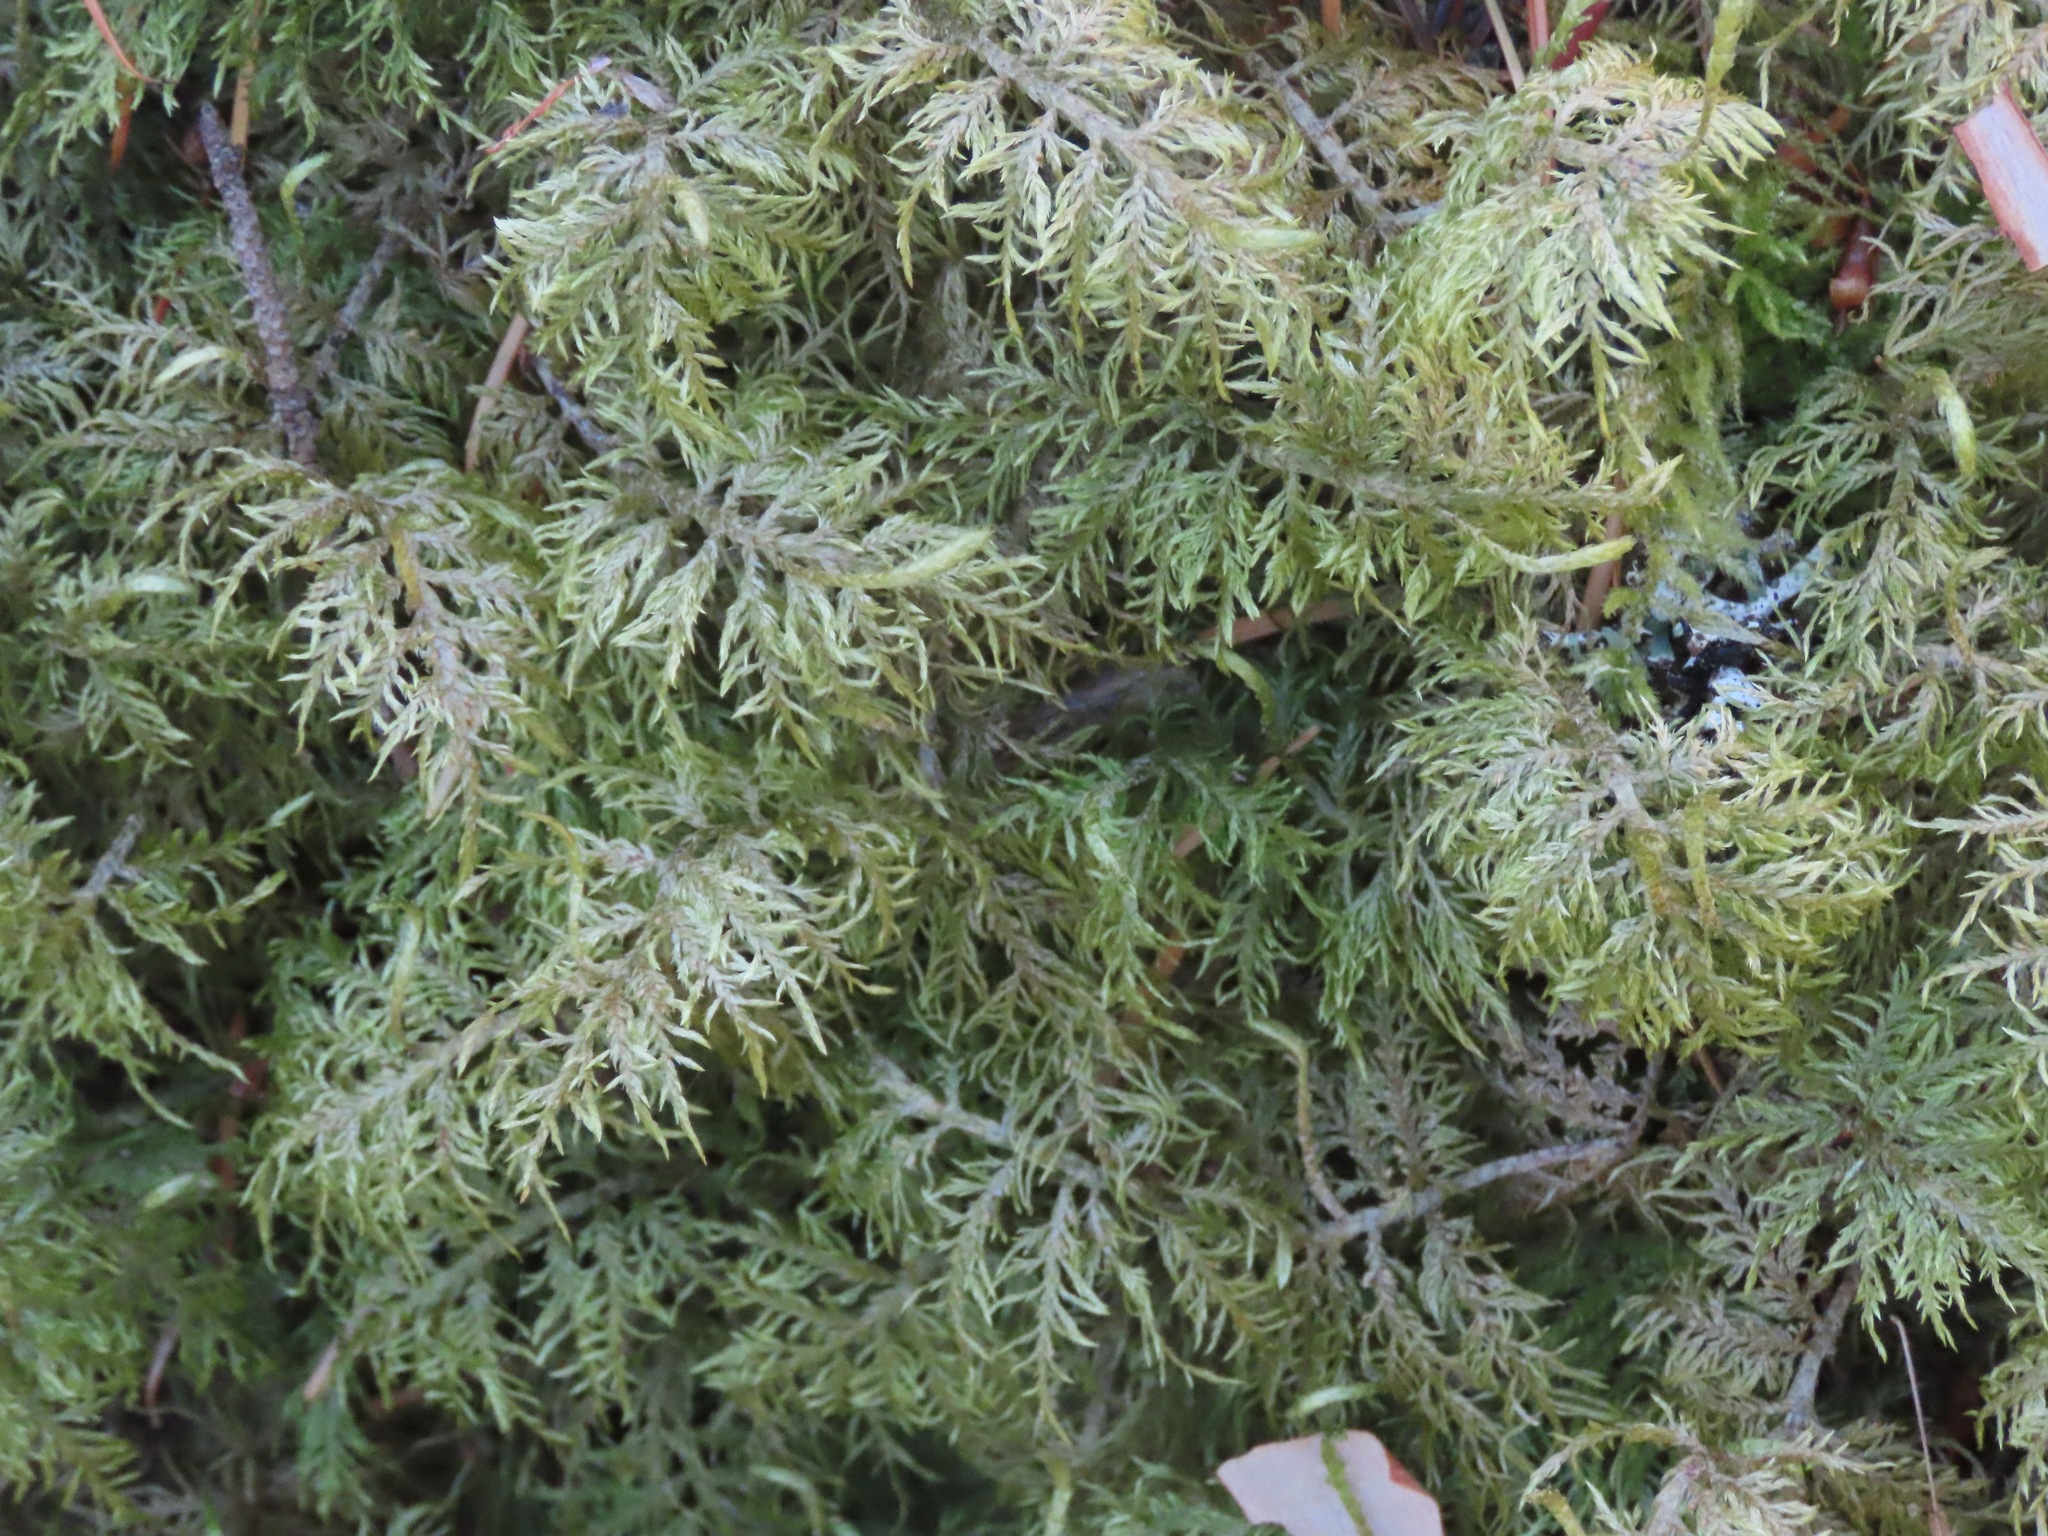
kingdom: Plantae
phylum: Bryophyta
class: Bryopsida
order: Hypnales
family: Hylocomiaceae
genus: Hylocomium
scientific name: Hylocomium splendens
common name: Stairstep moss
